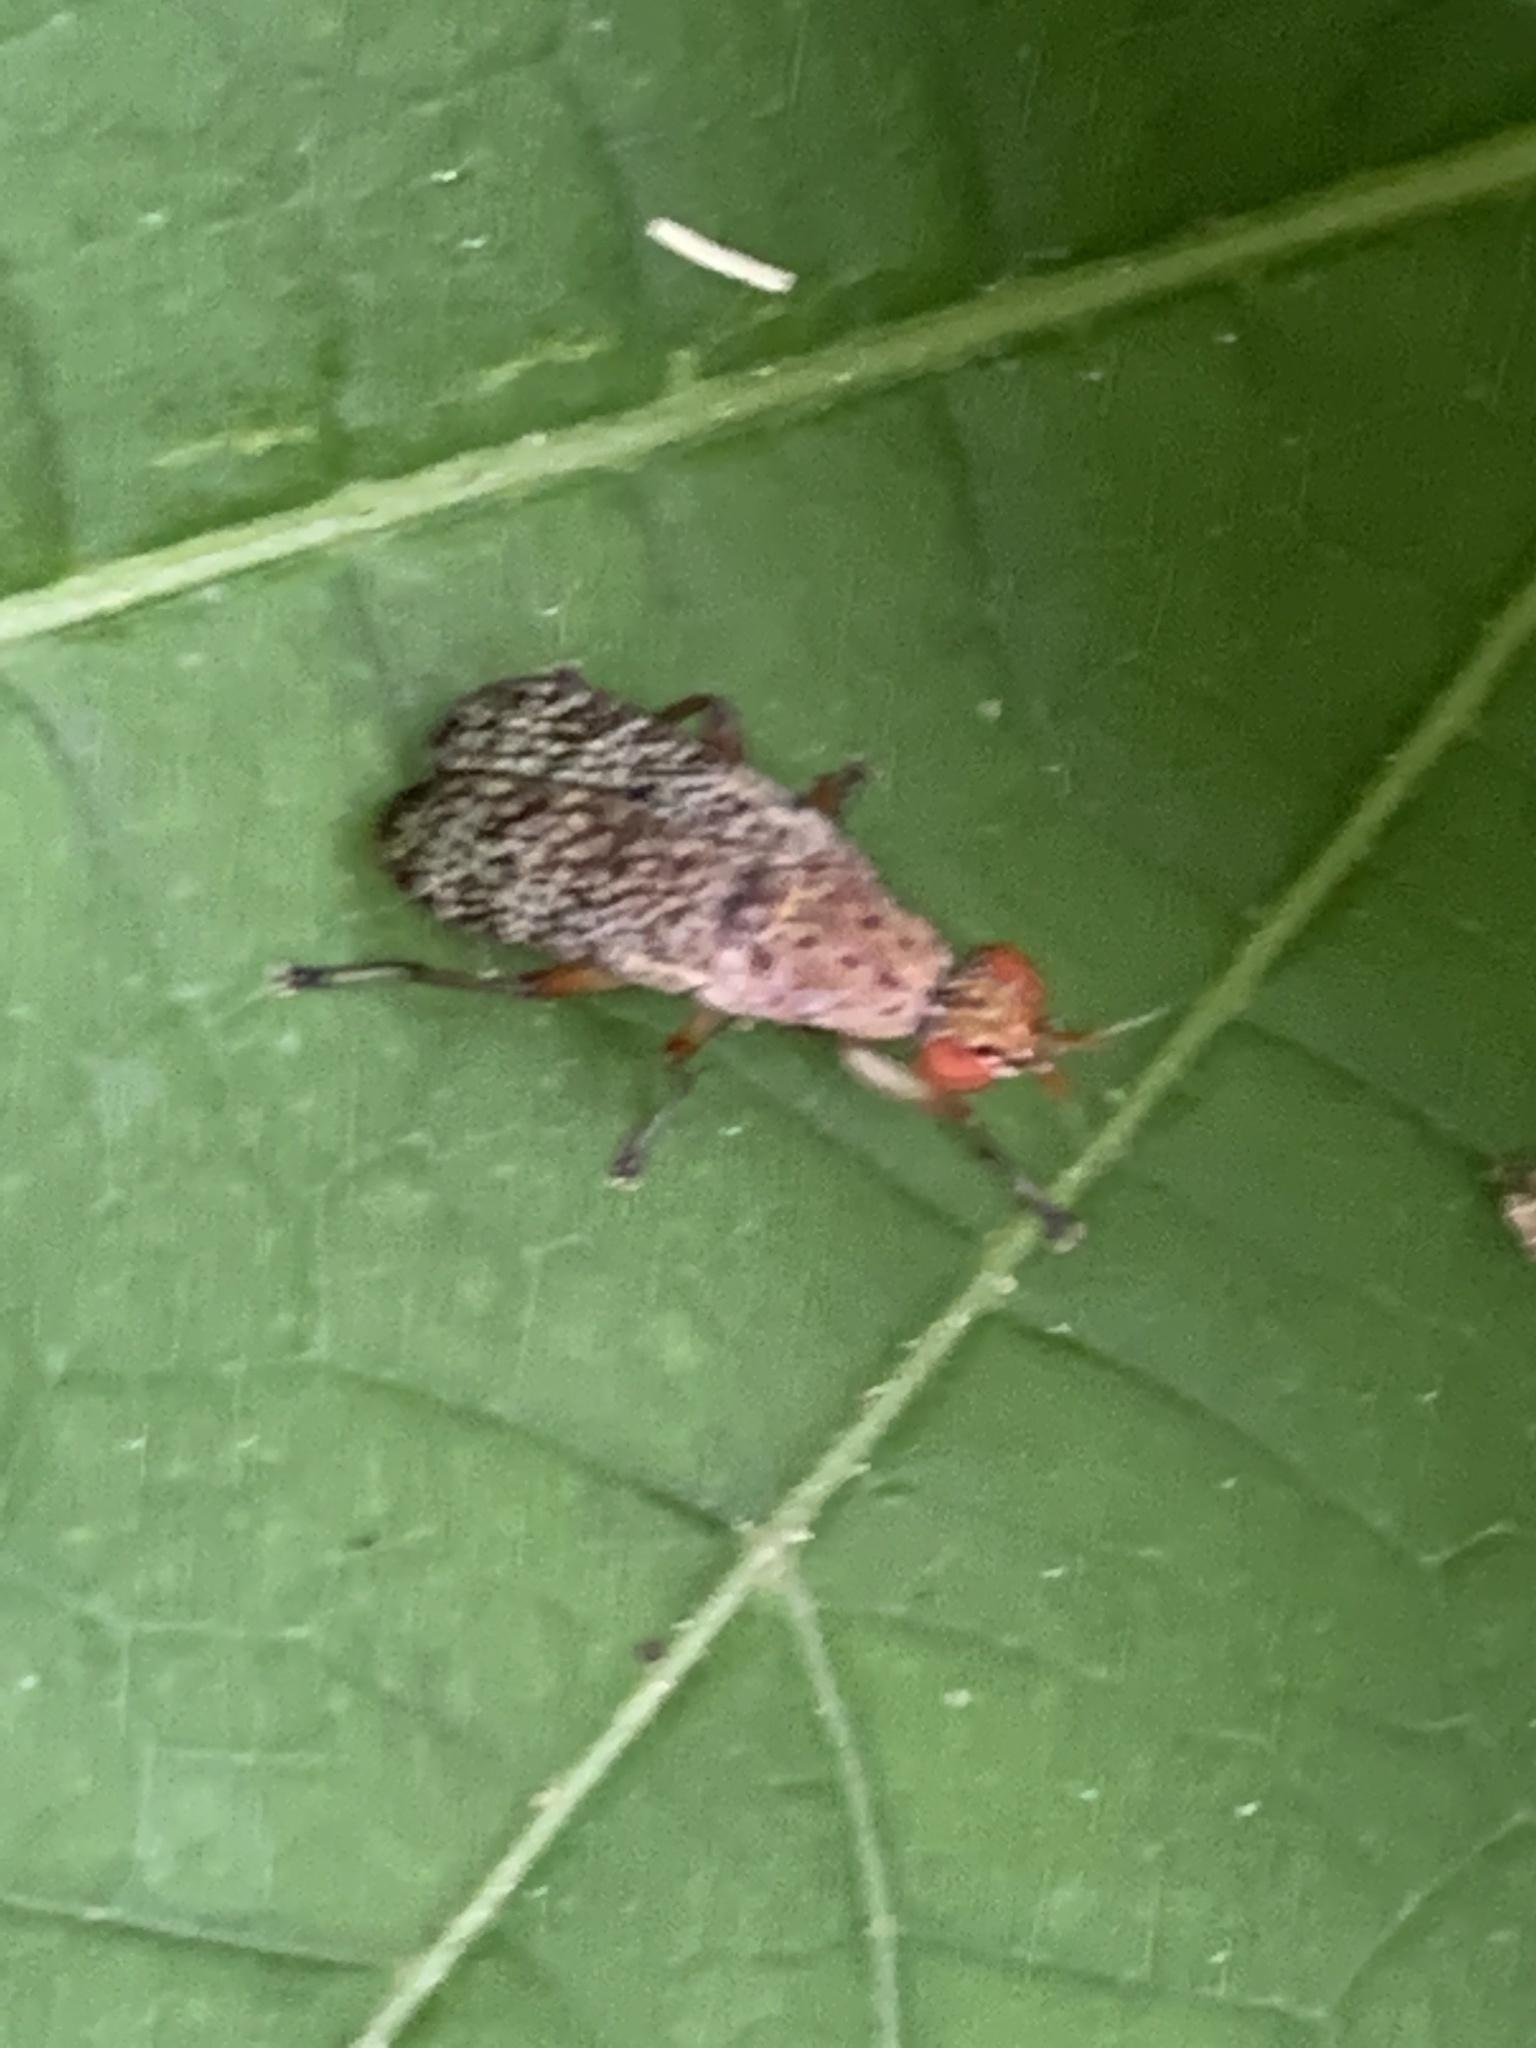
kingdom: Animalia
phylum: Arthropoda
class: Insecta
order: Diptera
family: Sciomyzidae
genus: Euthycera
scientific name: Euthycera flavescens
